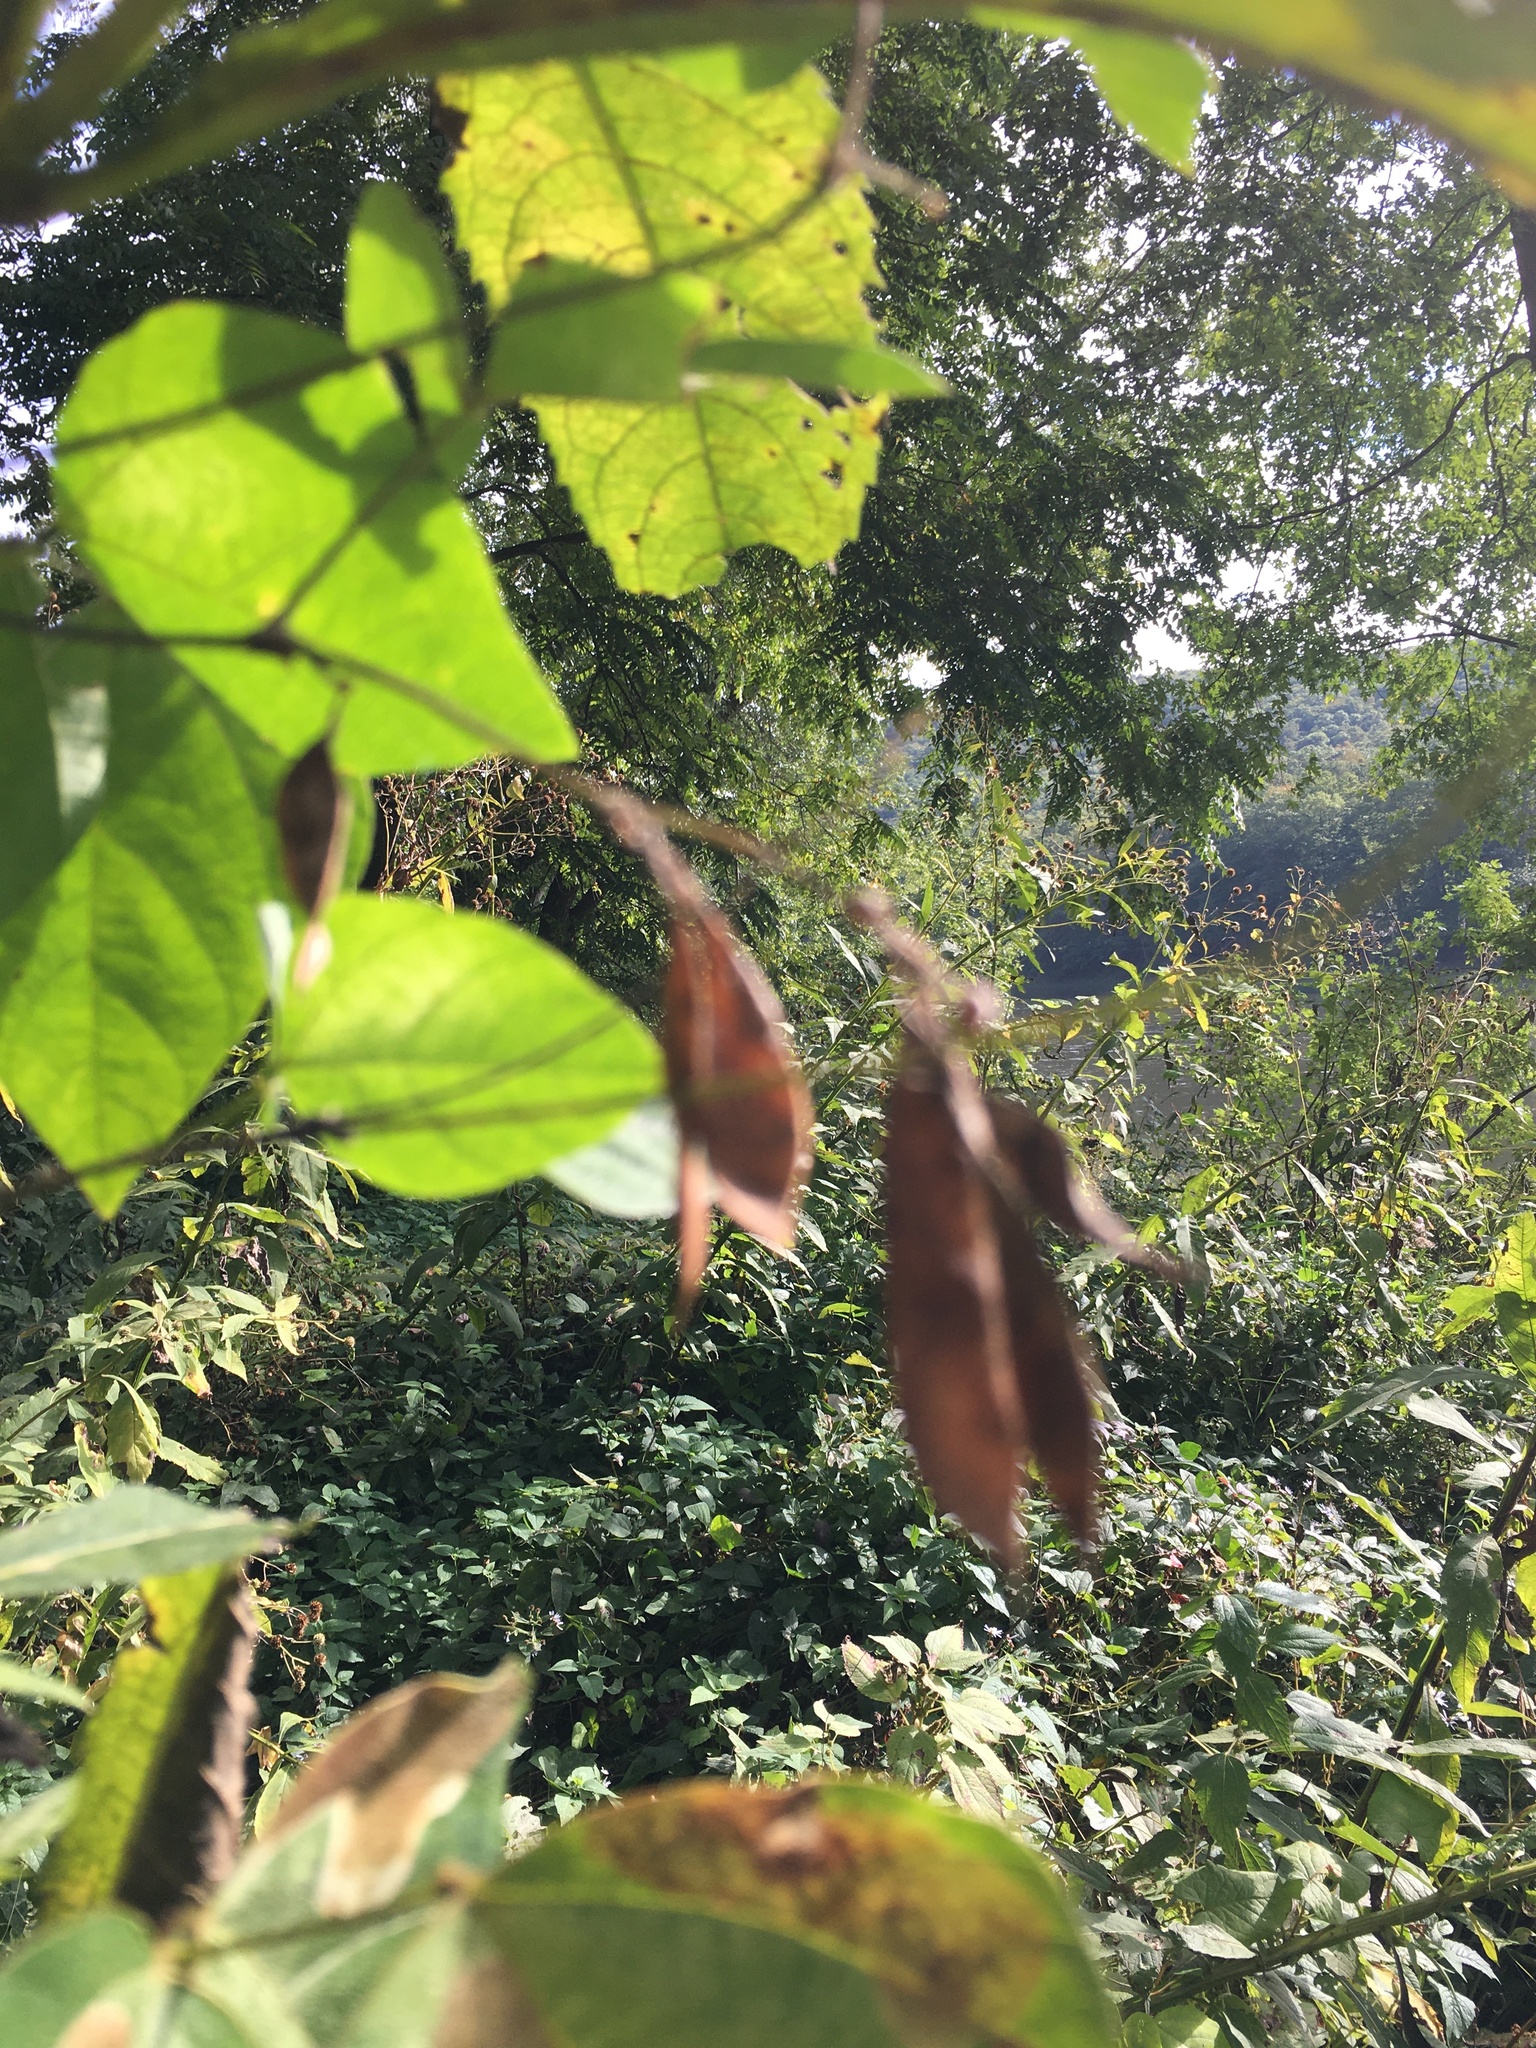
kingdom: Plantae
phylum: Tracheophyta
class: Magnoliopsida
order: Fabales
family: Fabaceae
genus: Amphicarpaea
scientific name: Amphicarpaea bracteata
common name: American hog peanut
